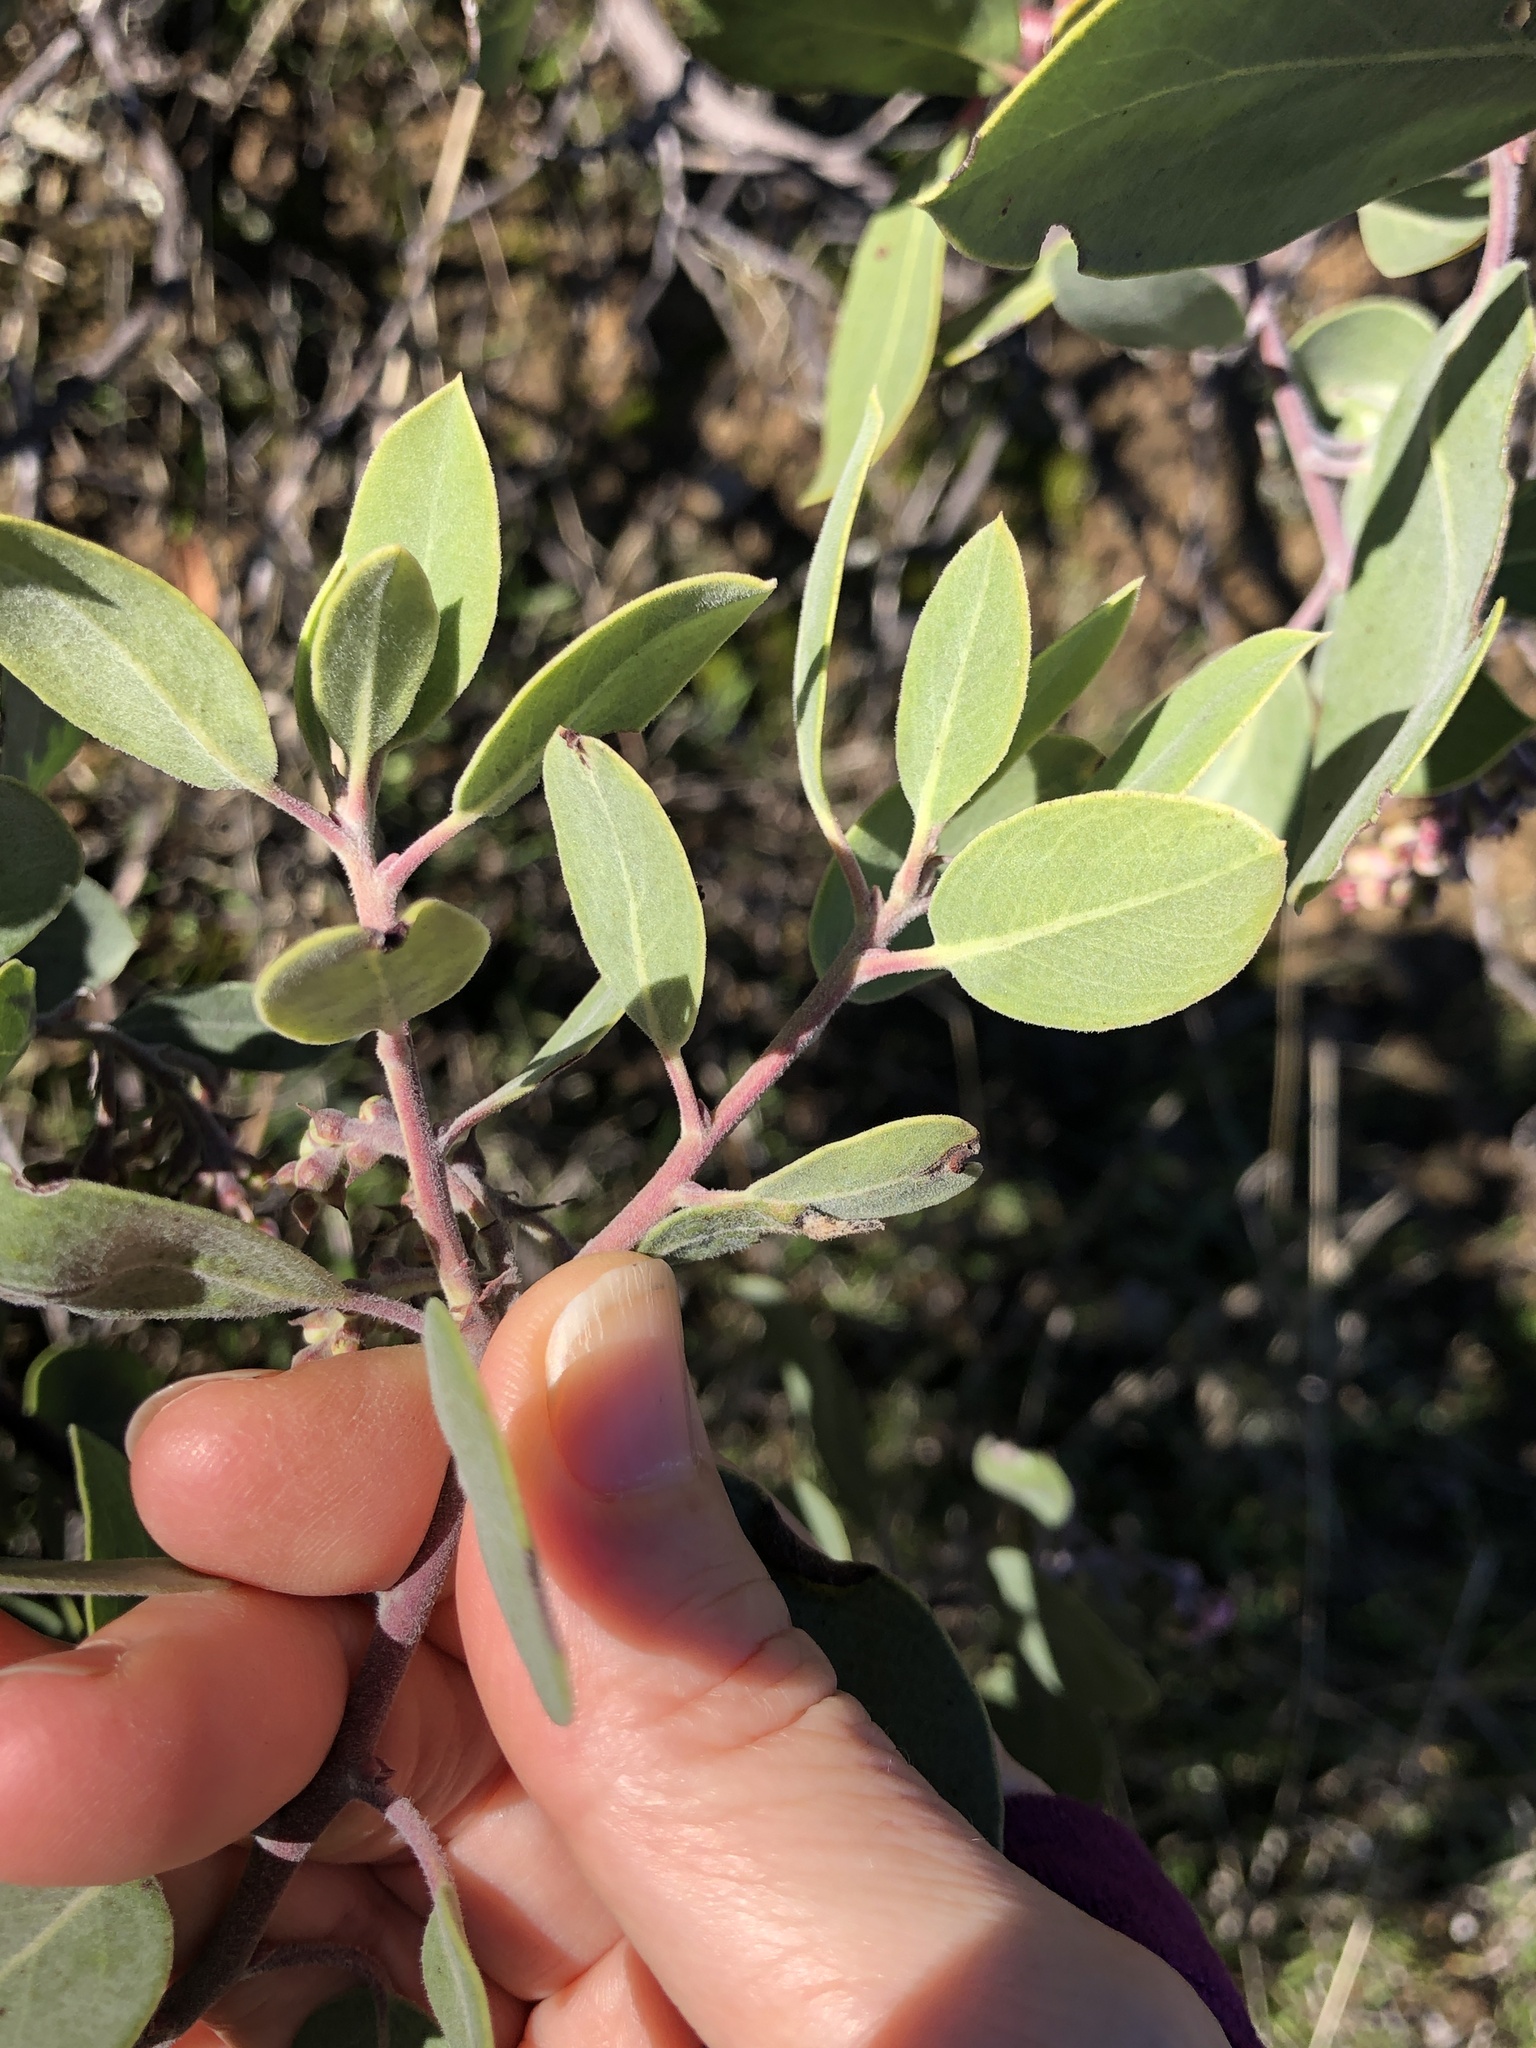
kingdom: Plantae
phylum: Tracheophyta
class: Magnoliopsida
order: Ericales
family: Ericaceae
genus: Arctostaphylos
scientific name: Arctostaphylos manzanita
